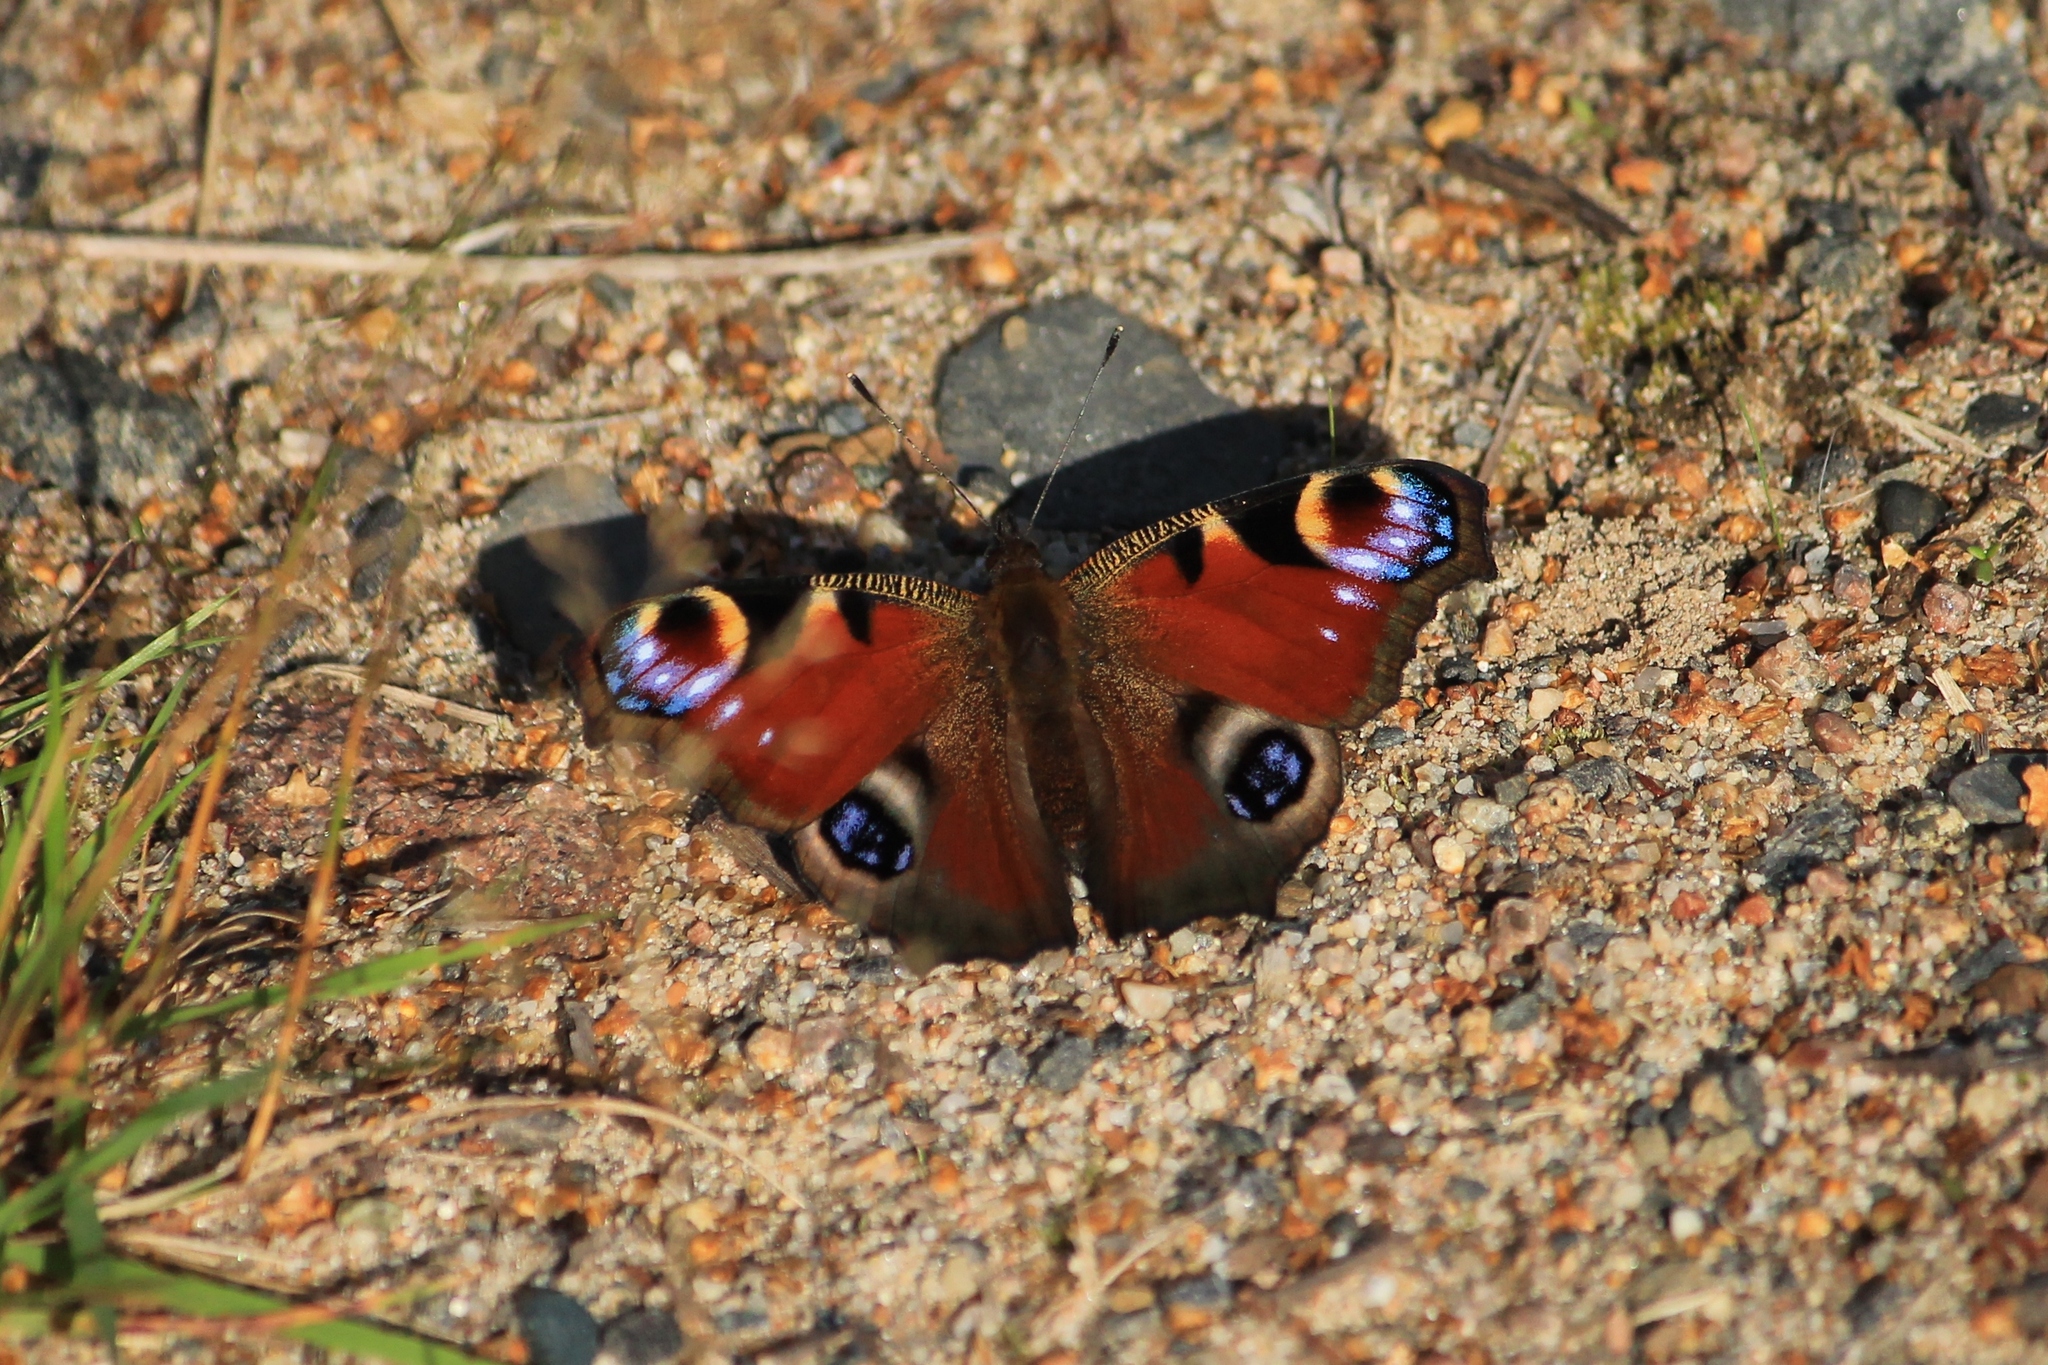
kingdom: Animalia
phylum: Arthropoda
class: Insecta
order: Lepidoptera
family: Nymphalidae
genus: Aglais
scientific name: Aglais io
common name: Peacock
